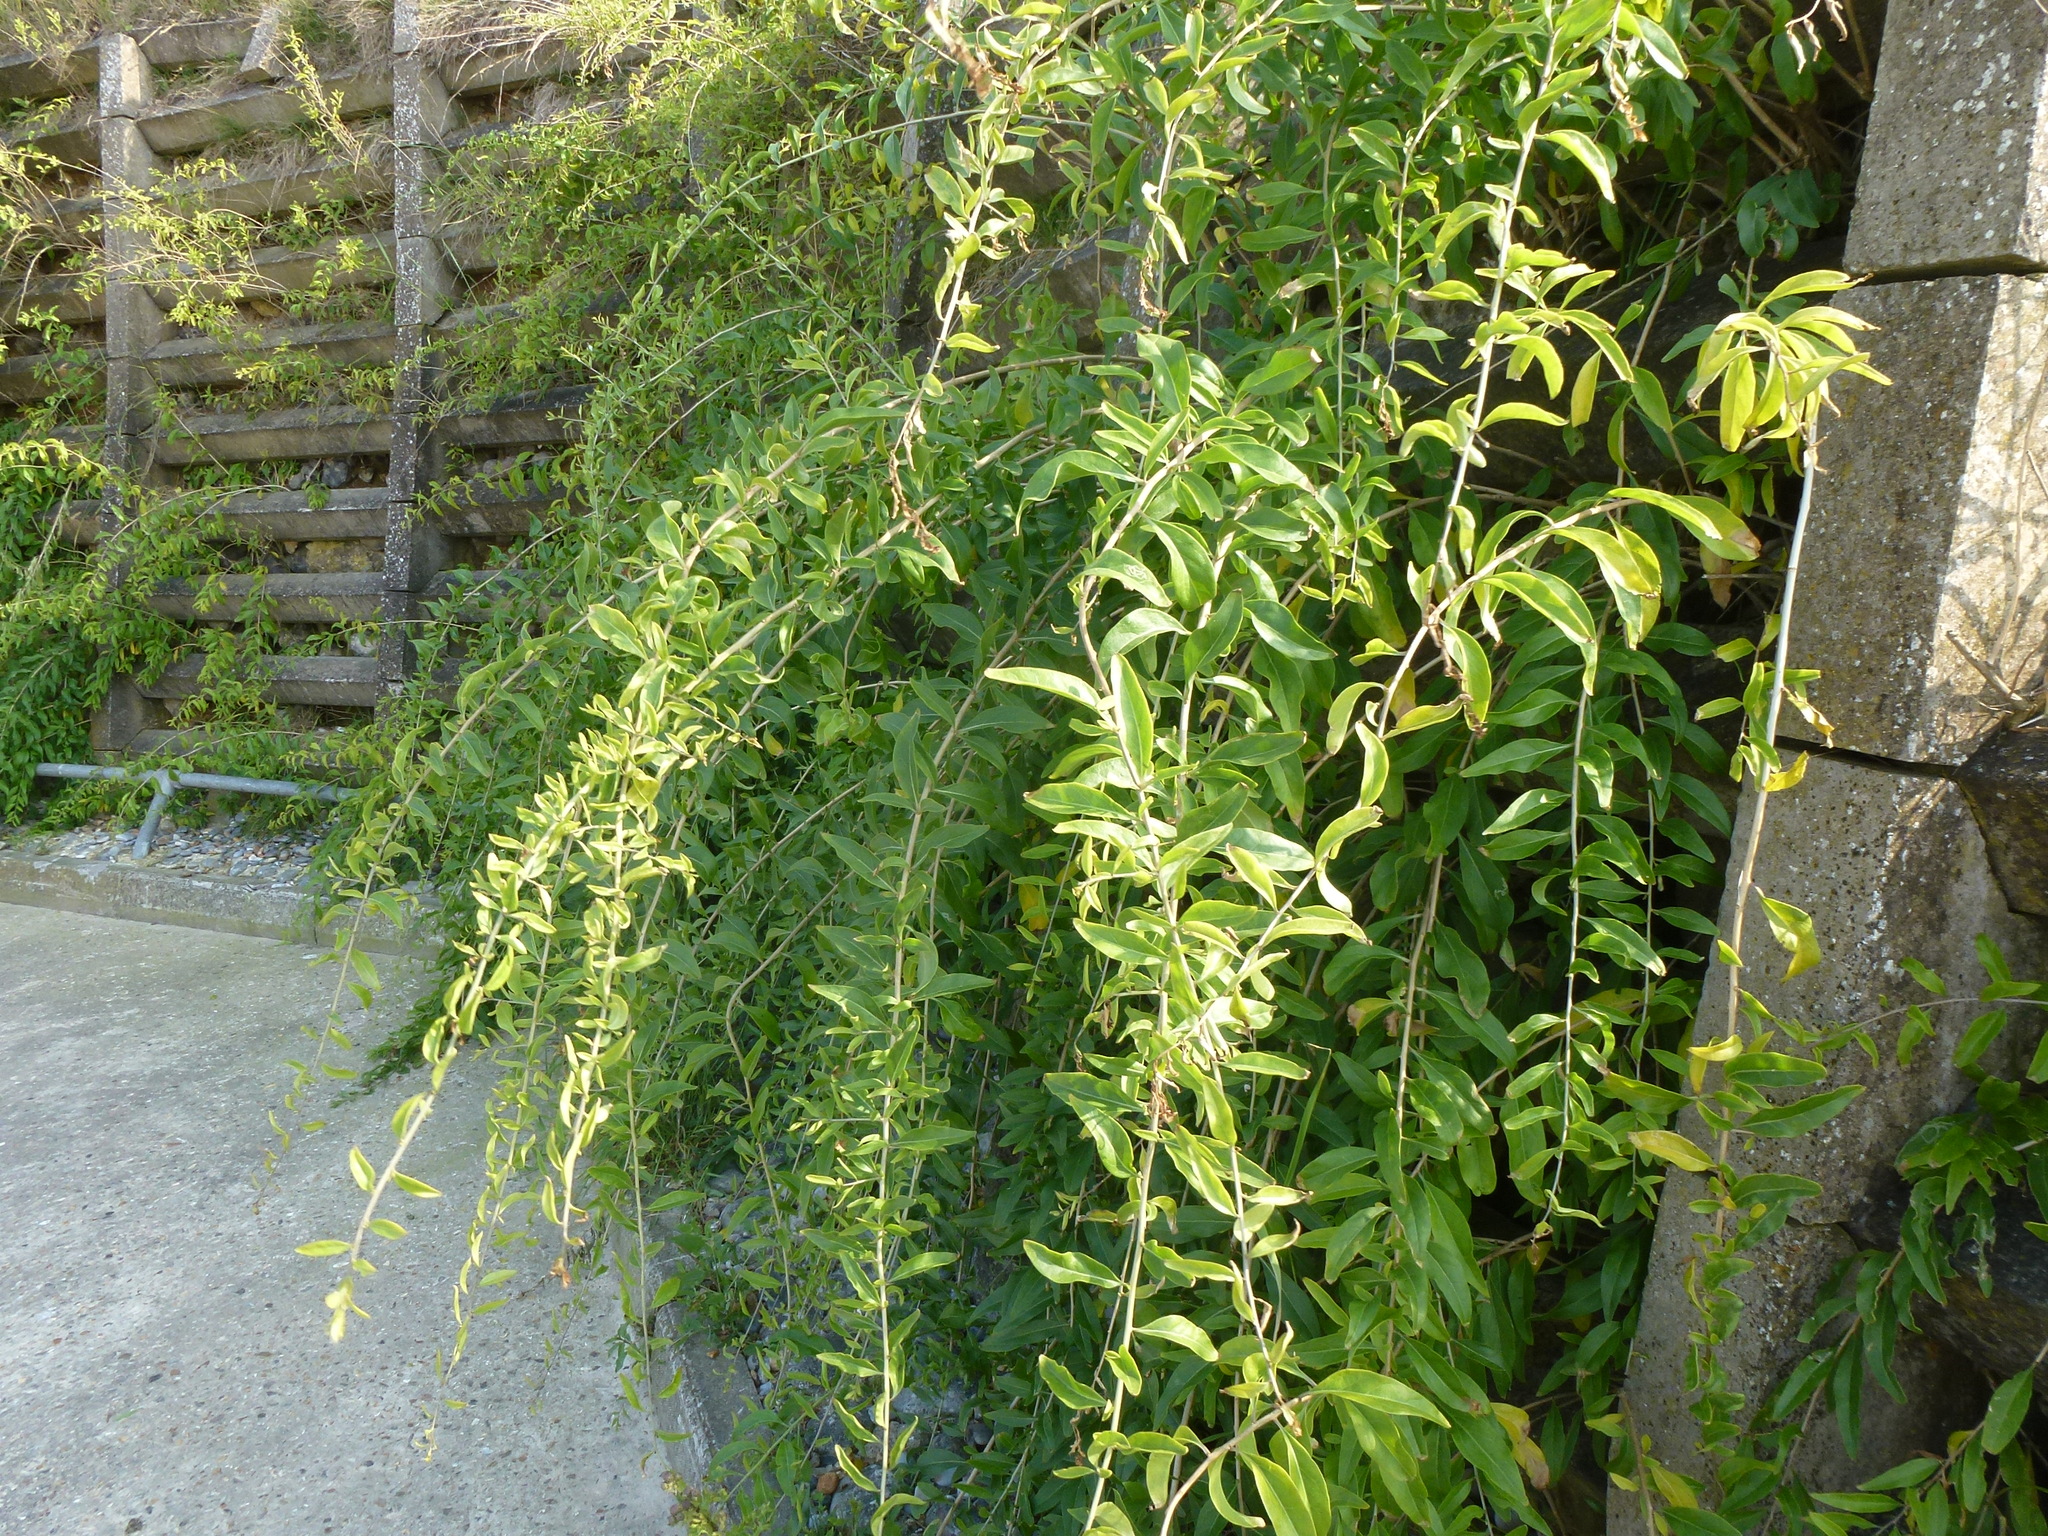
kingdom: Plantae
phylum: Tracheophyta
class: Magnoliopsida
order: Solanales
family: Solanaceae
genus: Lycium
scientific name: Lycium barbarum
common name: Duke of argyll's teaplant
